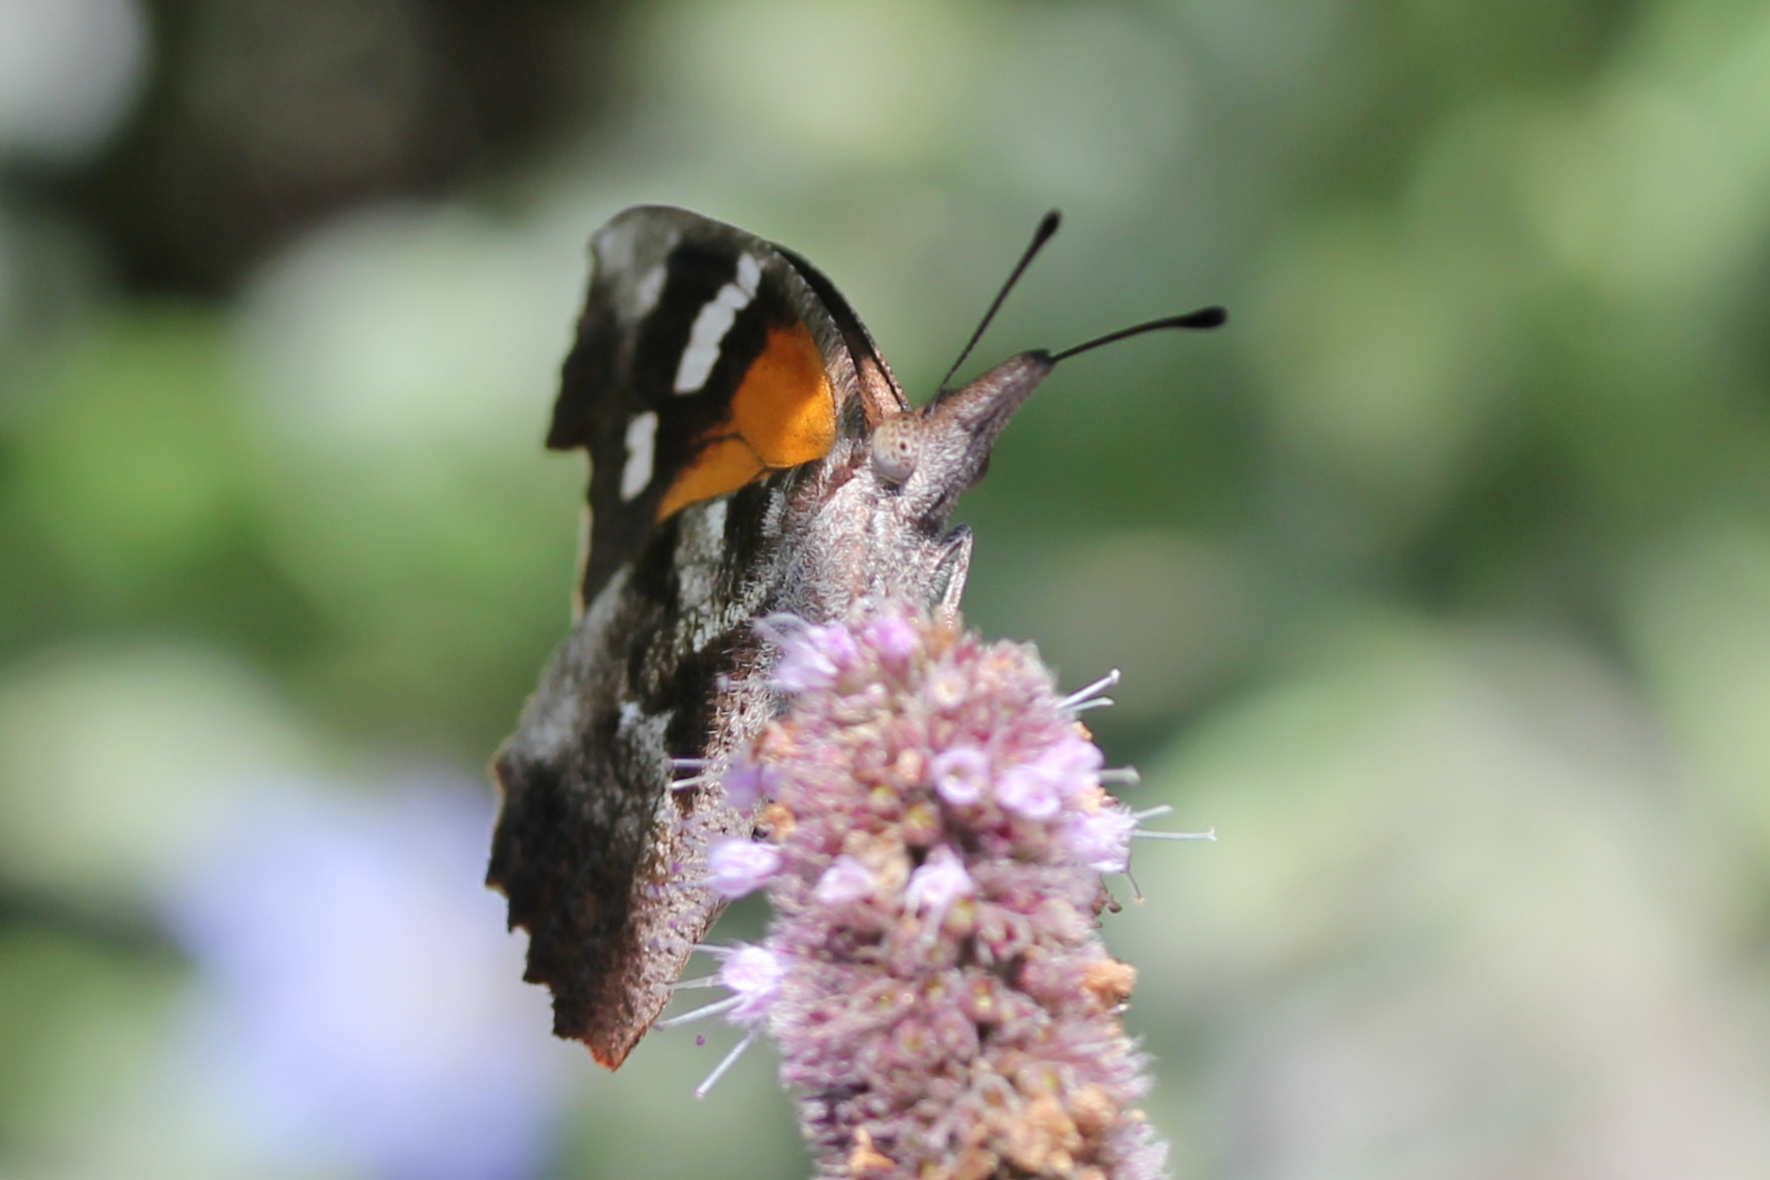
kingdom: Animalia
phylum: Arthropoda
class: Insecta
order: Lepidoptera
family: Nymphalidae
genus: Libytheana
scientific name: Libytheana carinenta
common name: American snout
